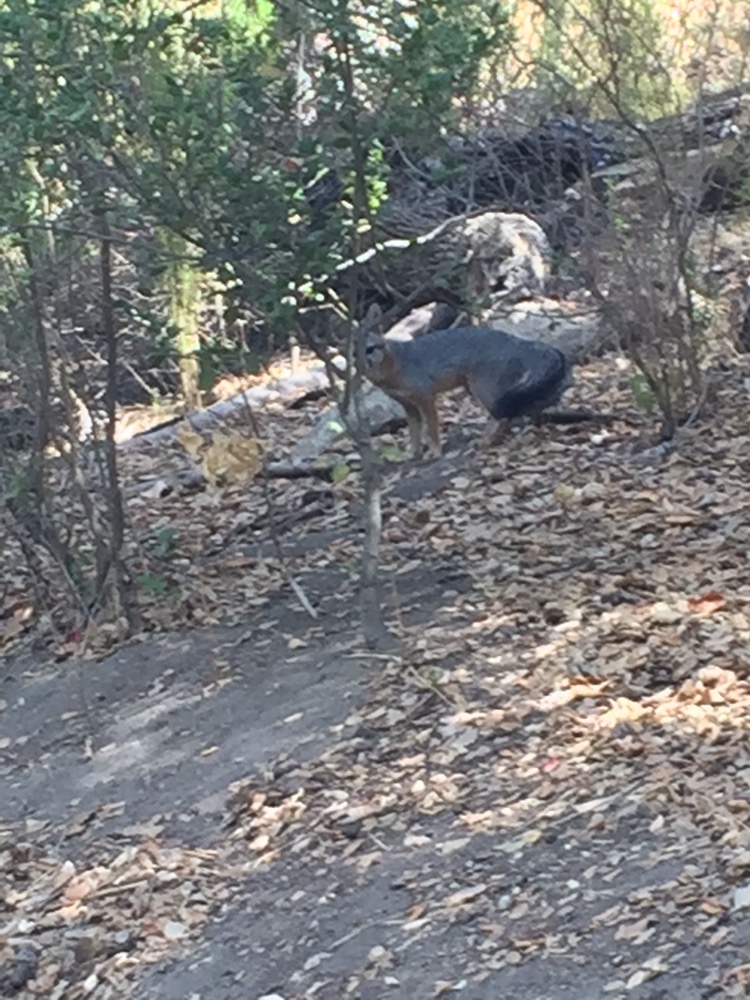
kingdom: Animalia
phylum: Chordata
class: Mammalia
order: Carnivora
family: Canidae
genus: Urocyon
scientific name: Urocyon cinereoargenteus
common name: Gray fox
